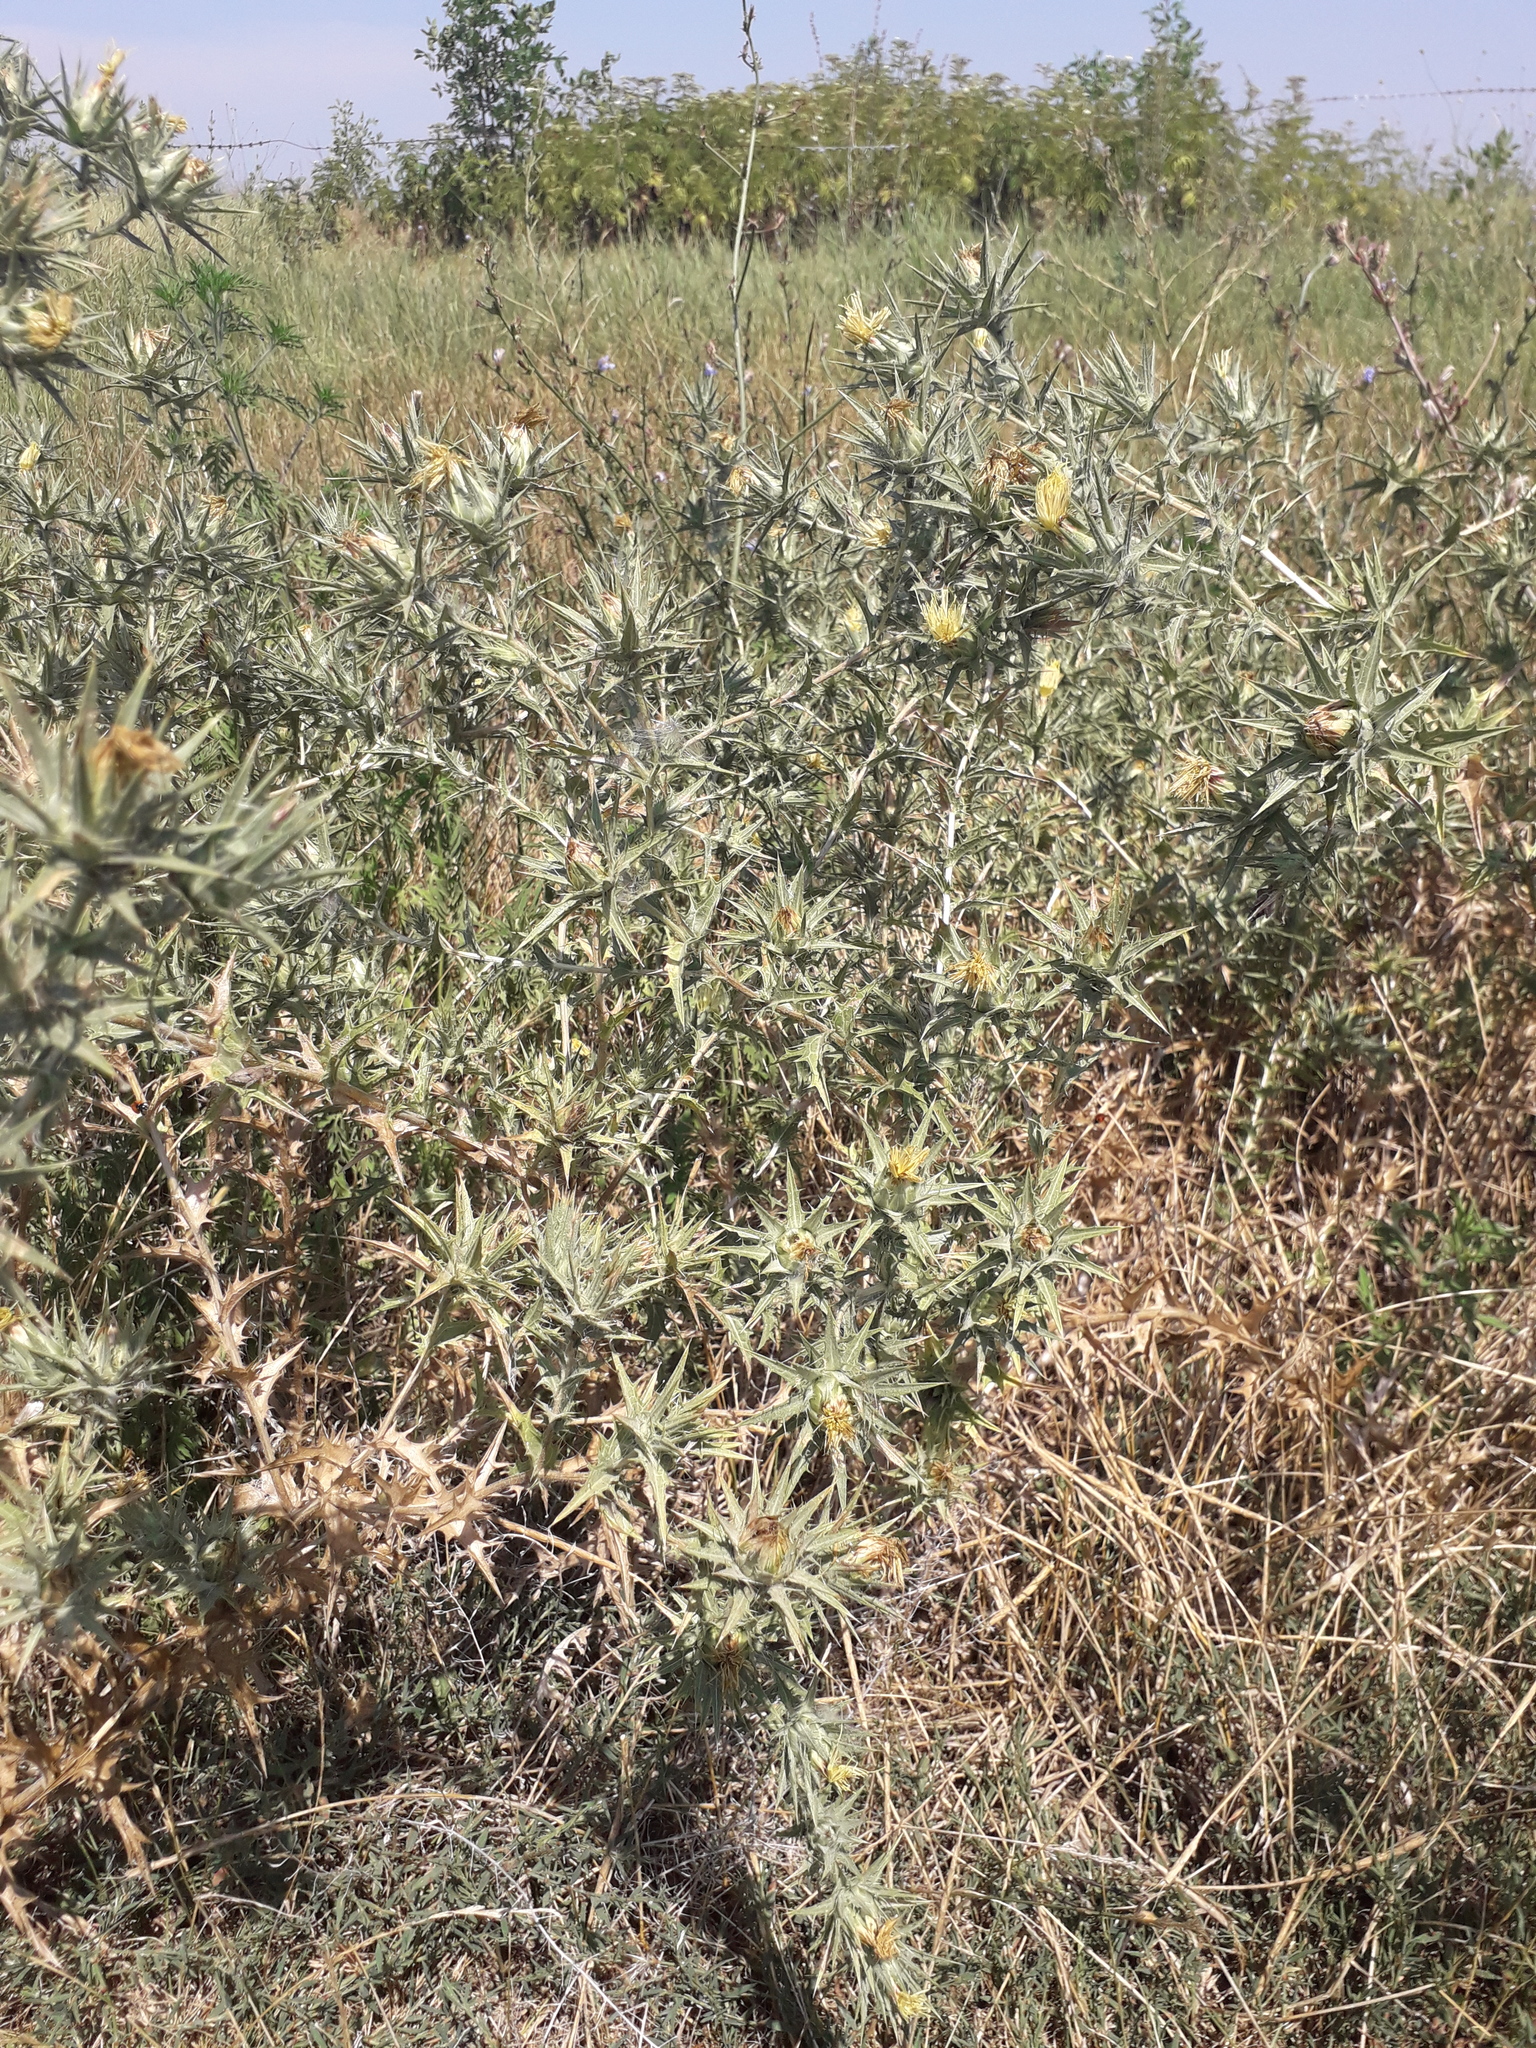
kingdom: Plantae
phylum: Tracheophyta
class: Magnoliopsida
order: Asterales
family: Asteraceae
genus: Carthamus
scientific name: Carthamus lanatus
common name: Downy safflower
